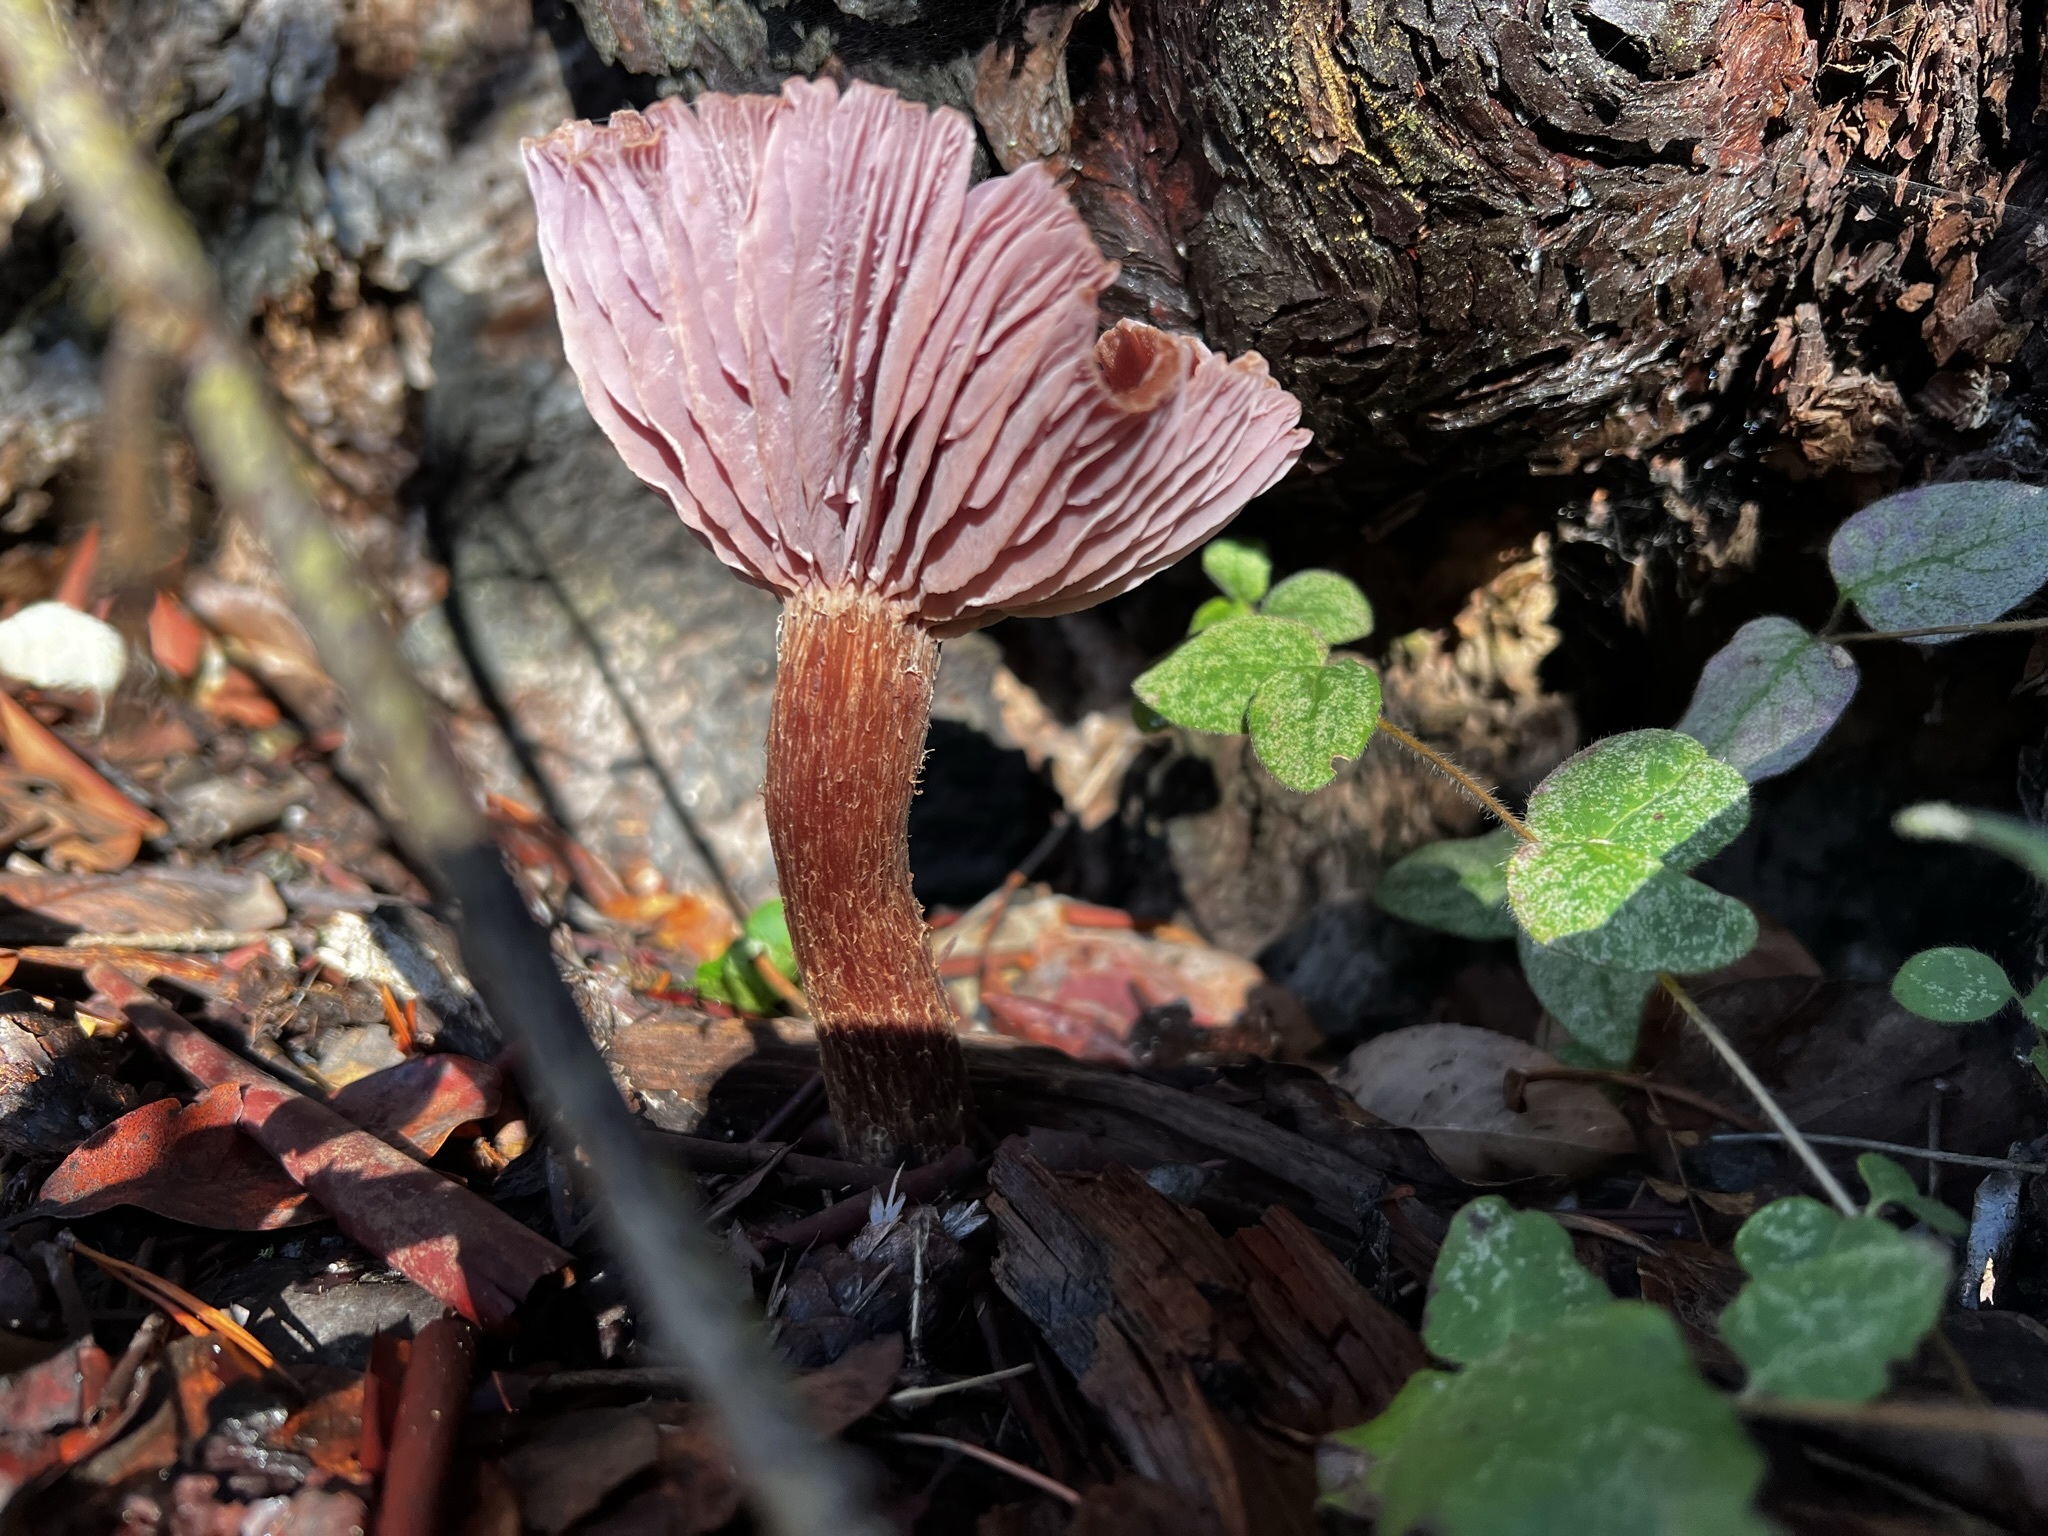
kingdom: Fungi
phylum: Basidiomycota
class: Agaricomycetes
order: Agaricales
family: Hydnangiaceae
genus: Laccaria
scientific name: Laccaria bicolor
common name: Bicoloured deceiver
